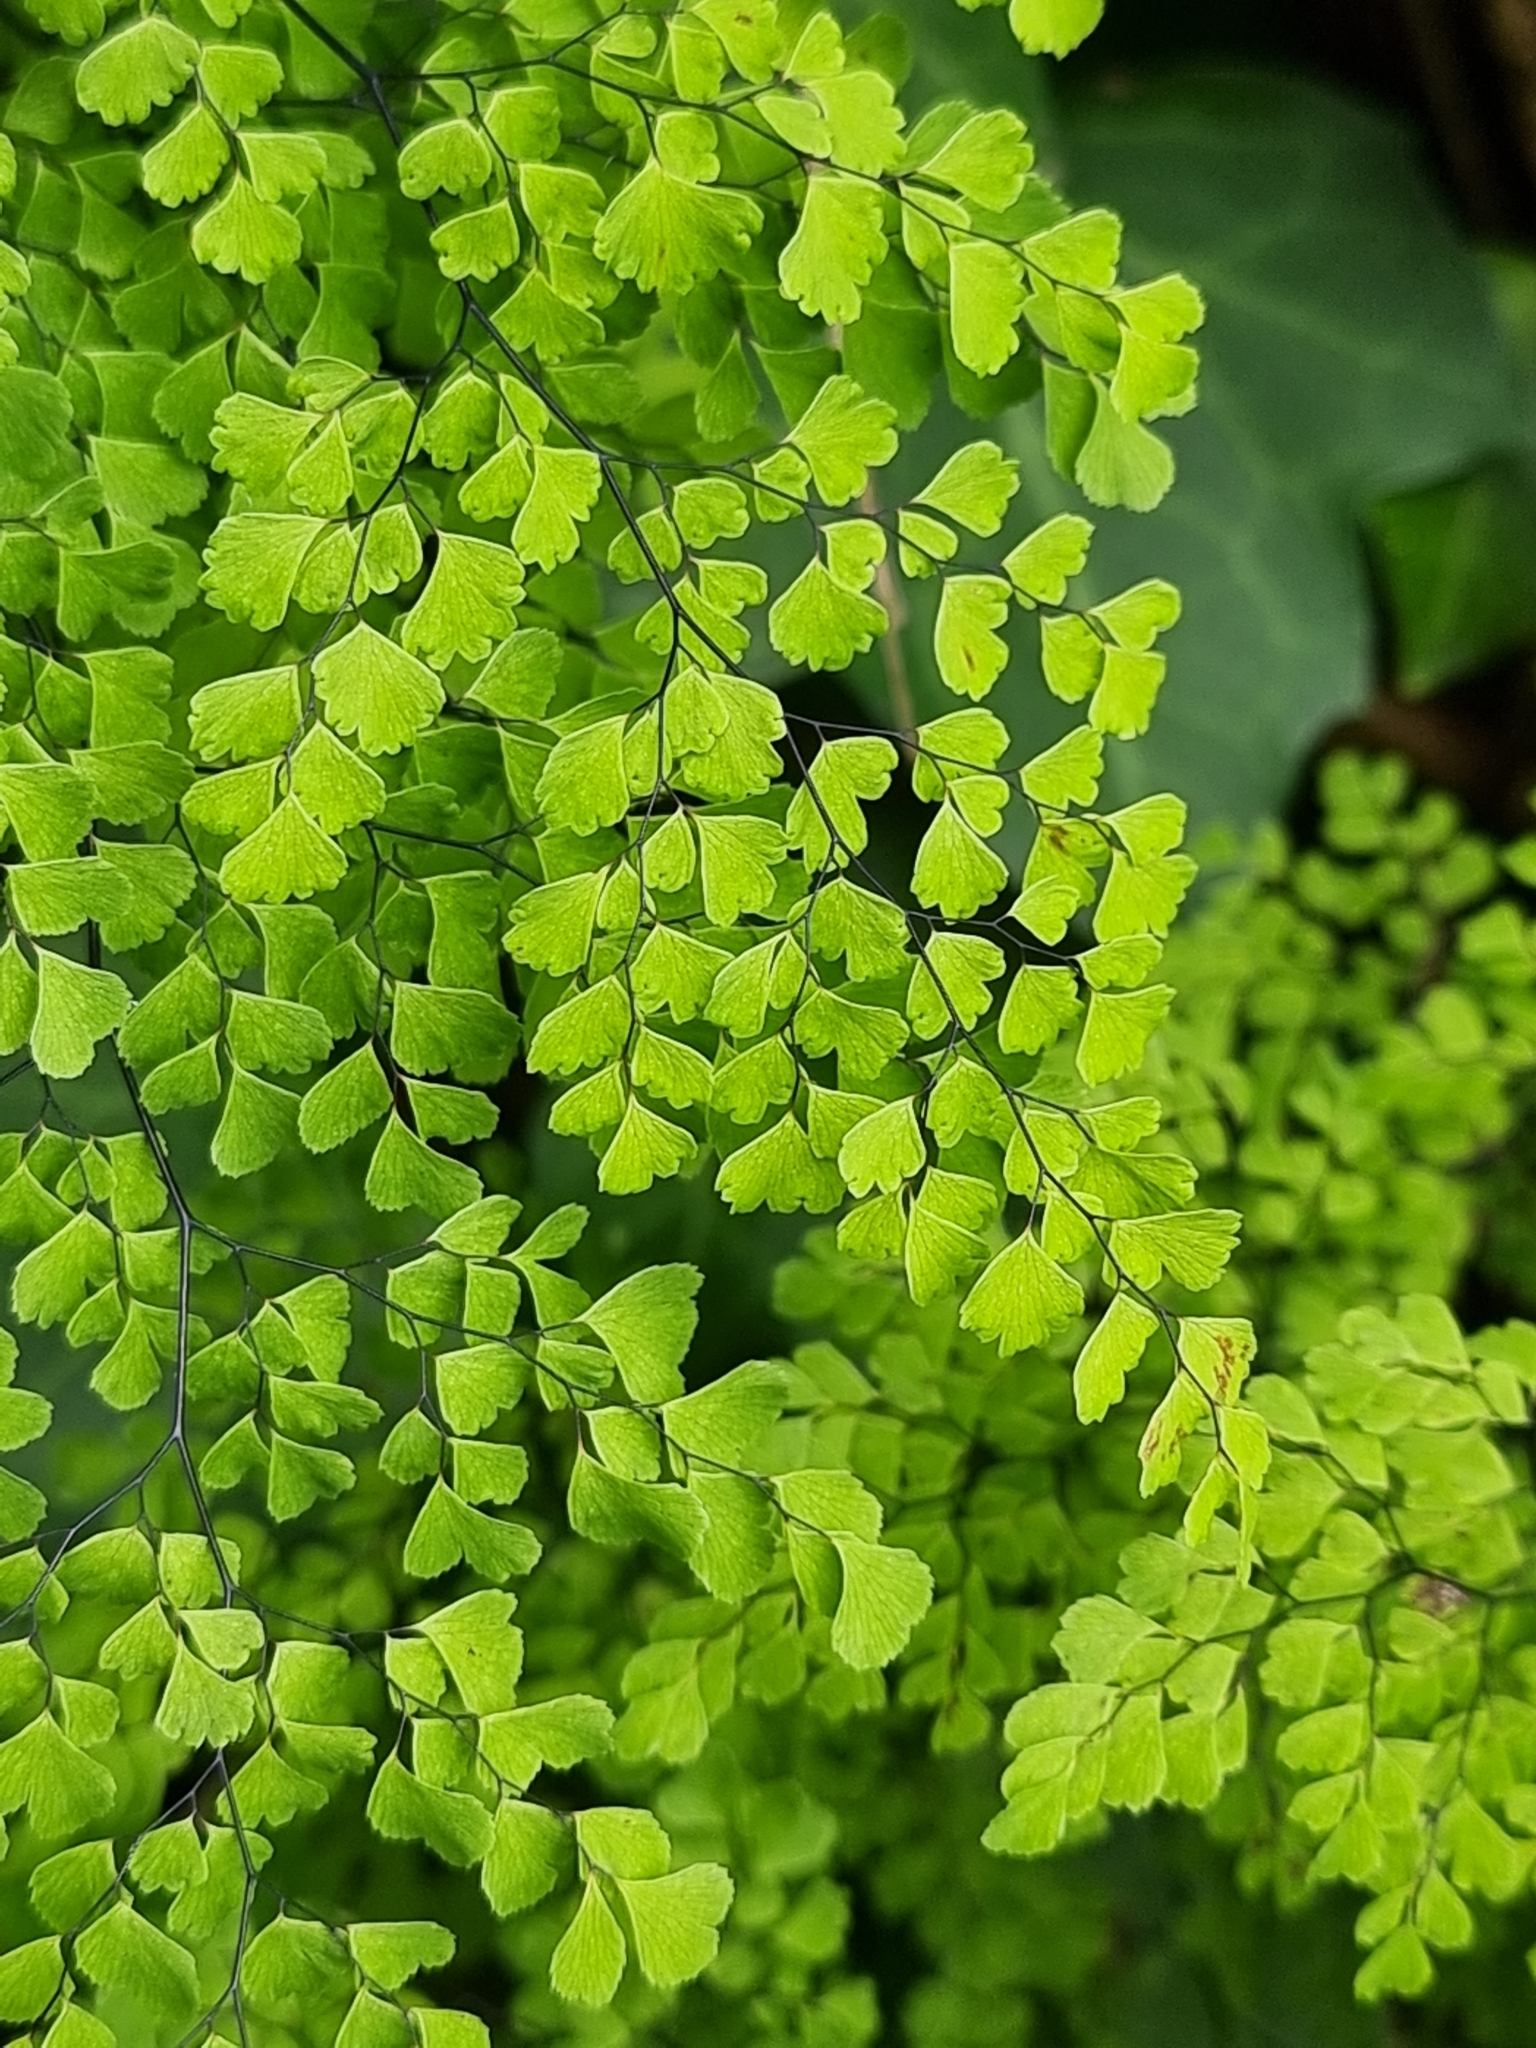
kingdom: Plantae
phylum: Tracheophyta
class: Polypodiopsida
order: Polypodiales
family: Pteridaceae
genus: Adiantum
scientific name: Adiantum raddianum
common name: Delta maidenhair fern
